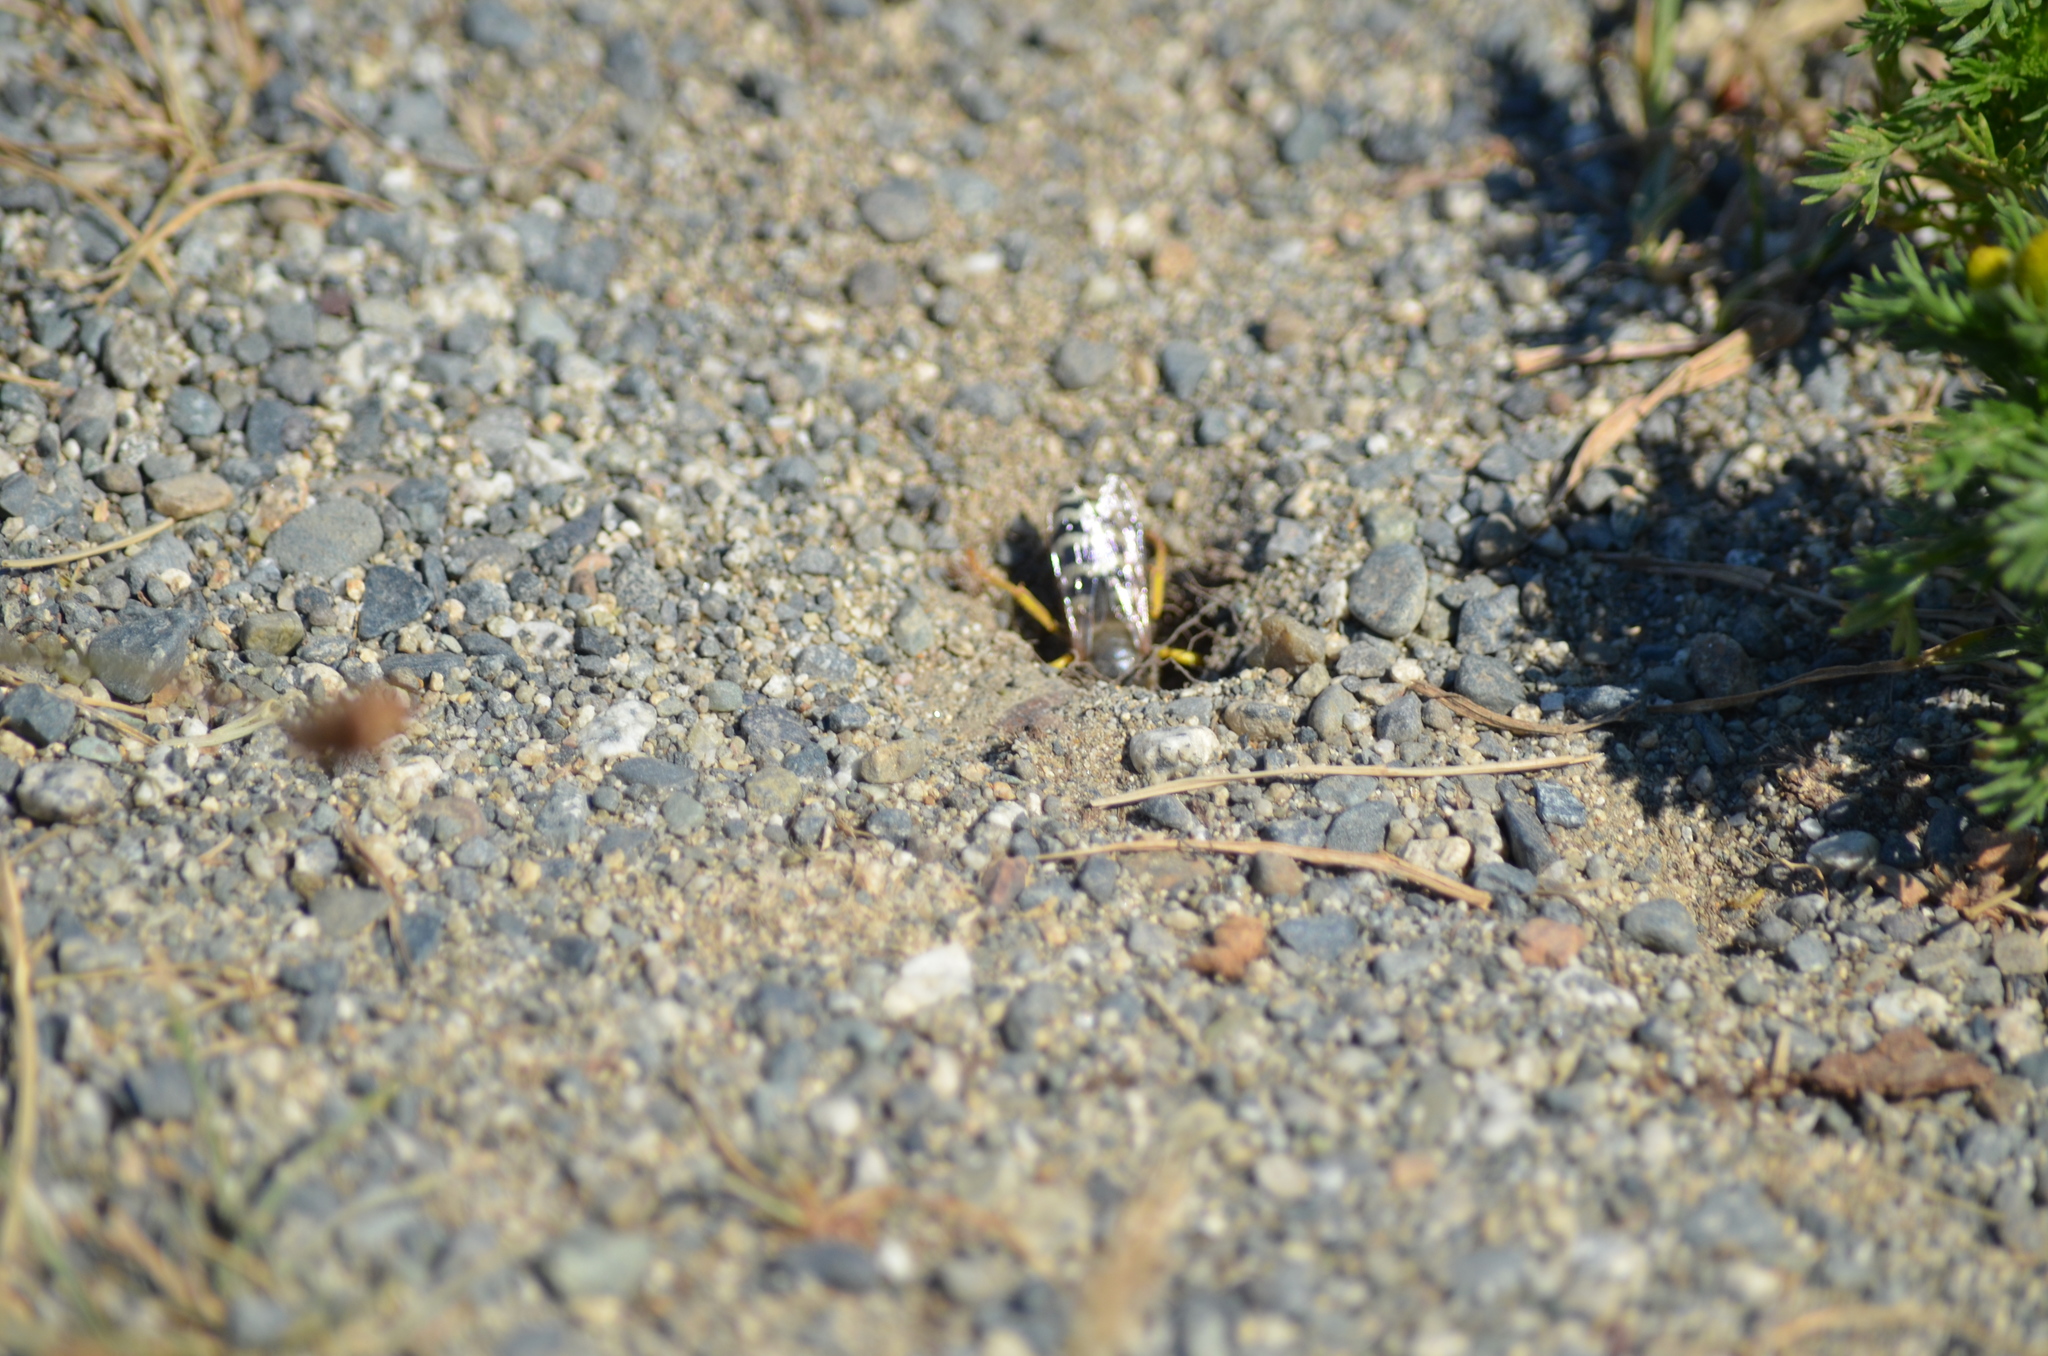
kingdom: Animalia
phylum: Arthropoda
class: Insecta
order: Hymenoptera
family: Crabronidae
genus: Bembix
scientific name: Bembix americana
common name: American sand wasp
